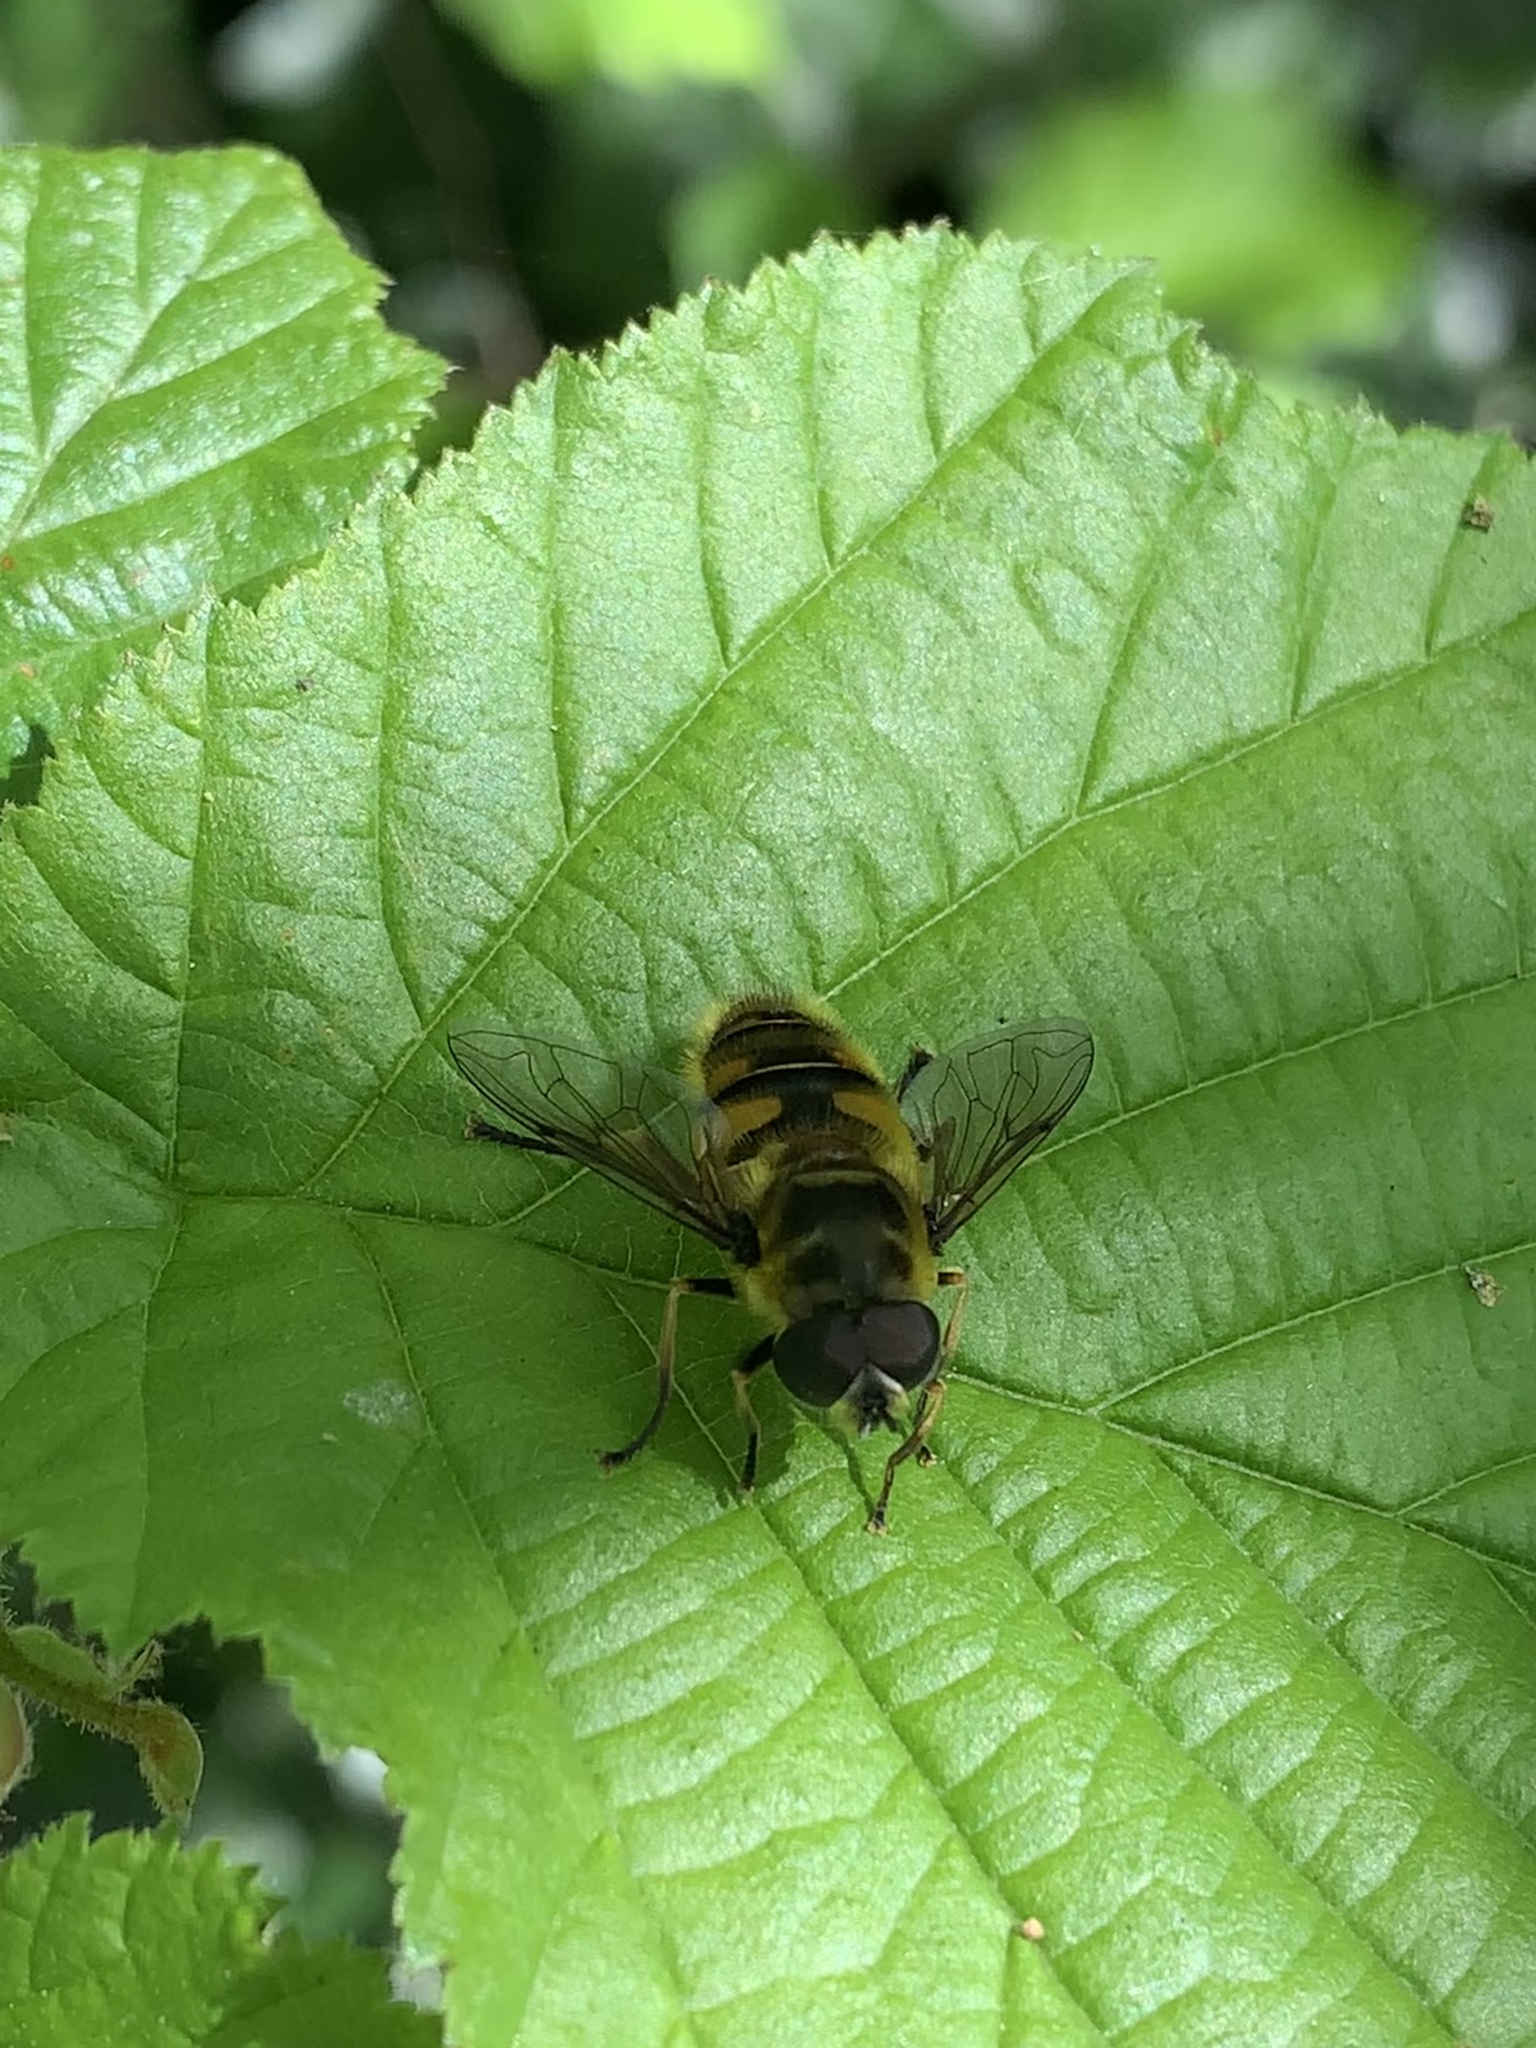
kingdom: Animalia
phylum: Arthropoda
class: Insecta
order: Diptera
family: Syrphidae
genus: Myathropa
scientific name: Myathropa florea
